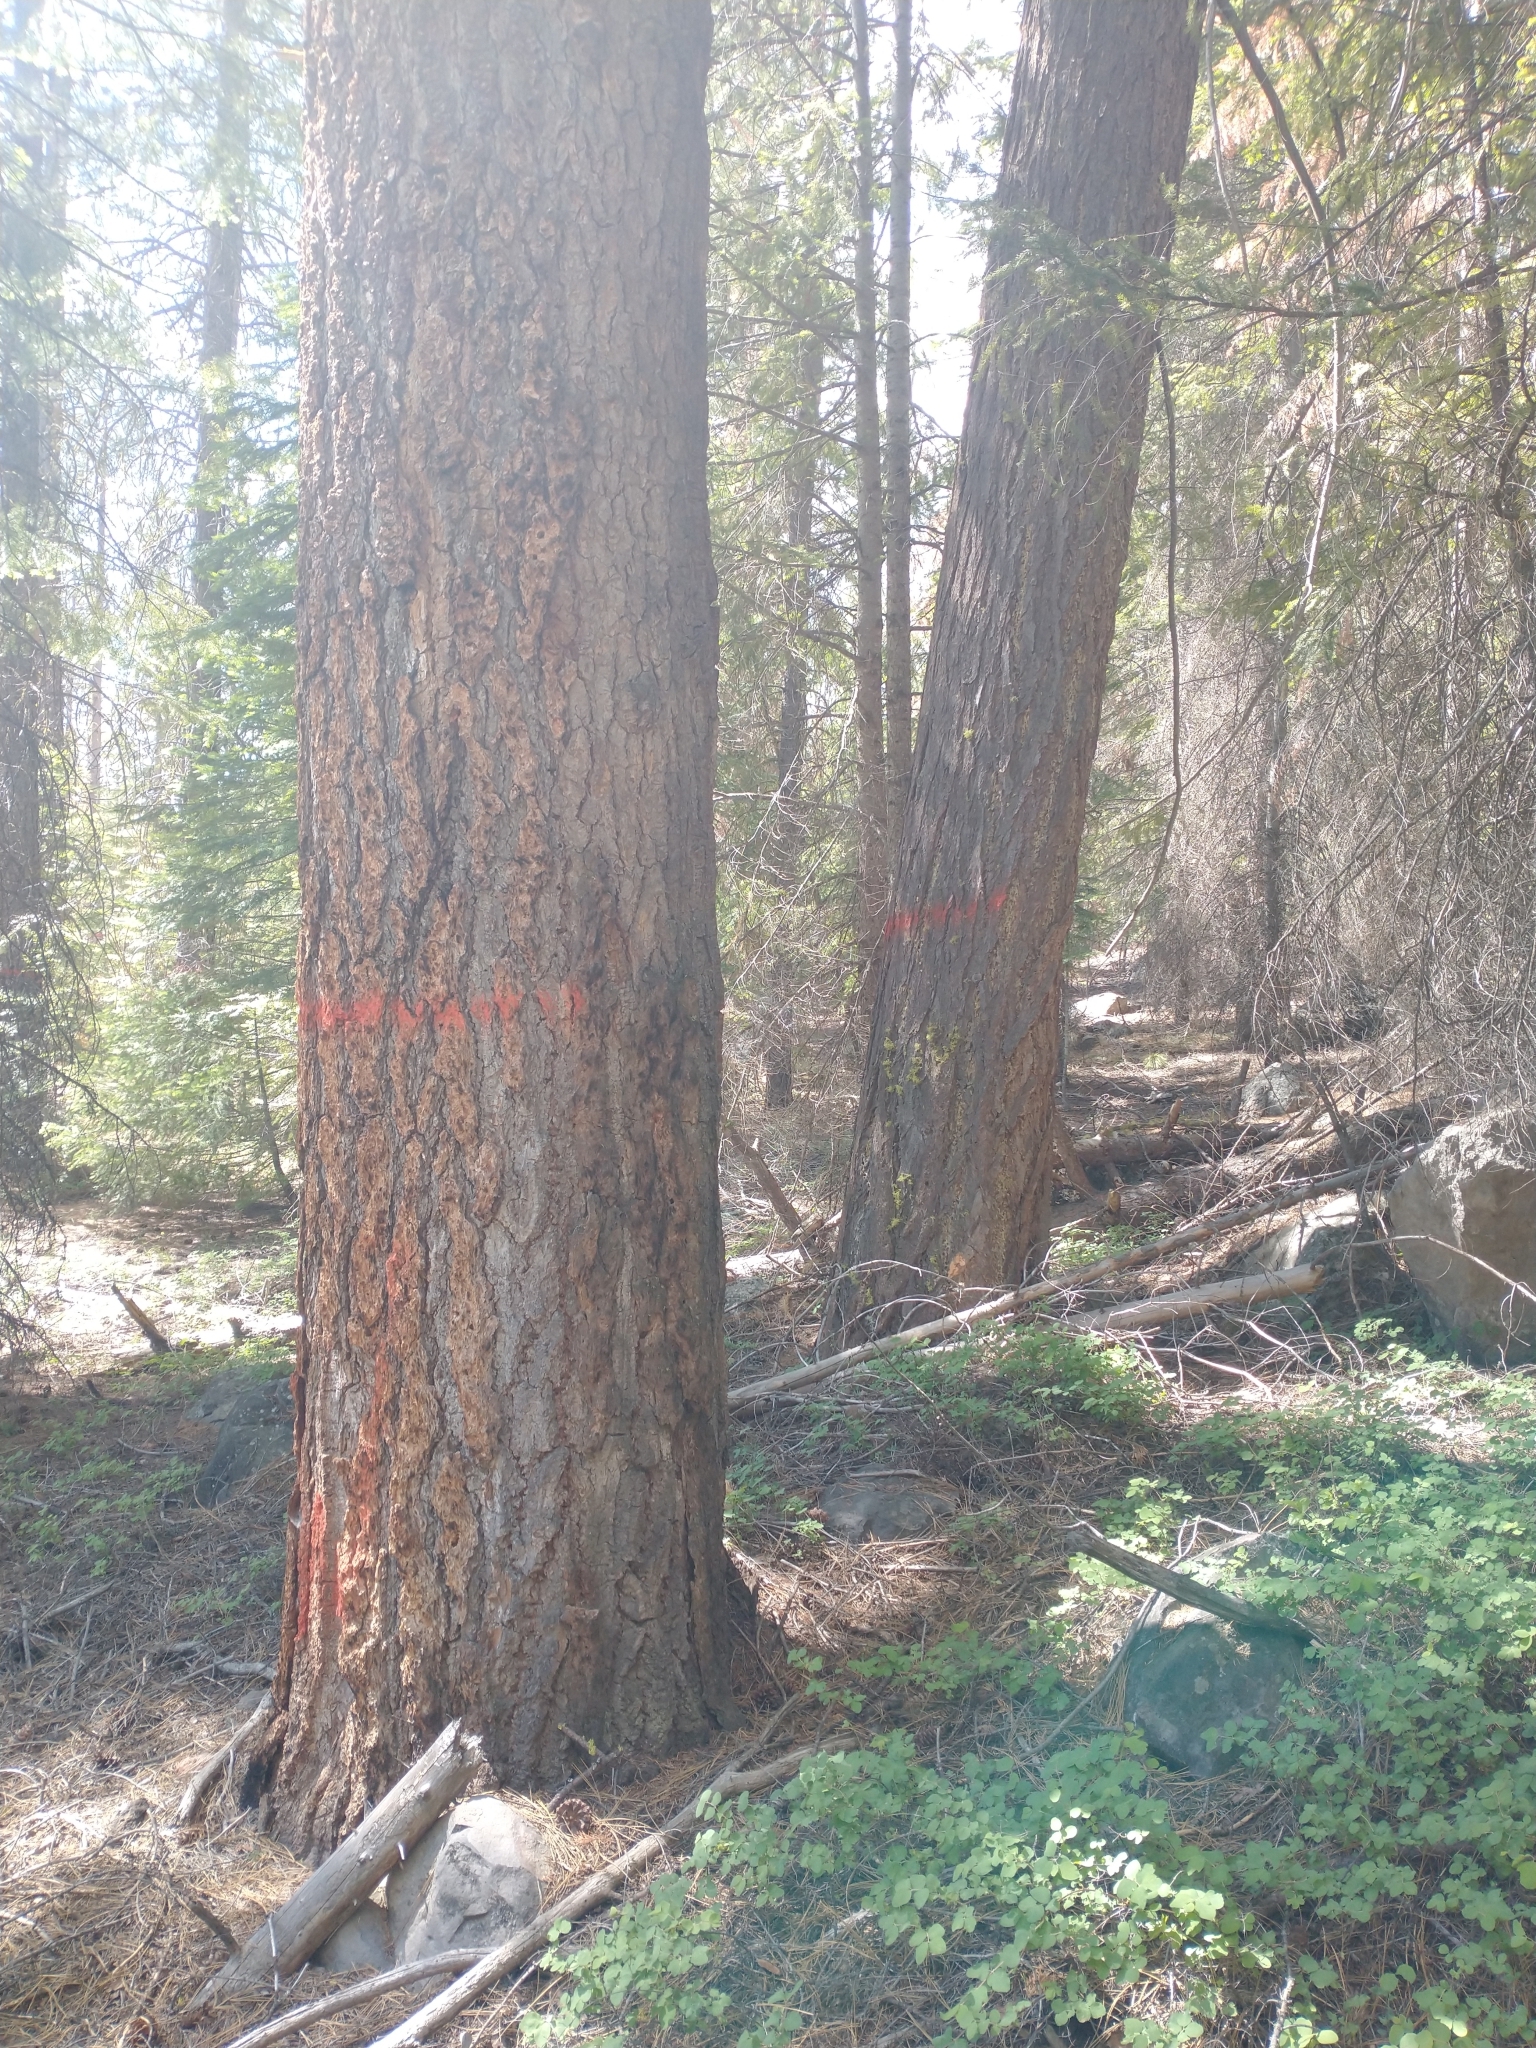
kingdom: Plantae
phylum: Tracheophyta
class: Pinopsida
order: Pinales
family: Pinaceae
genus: Pseudotsuga
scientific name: Pseudotsuga menziesii
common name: Douglas fir
